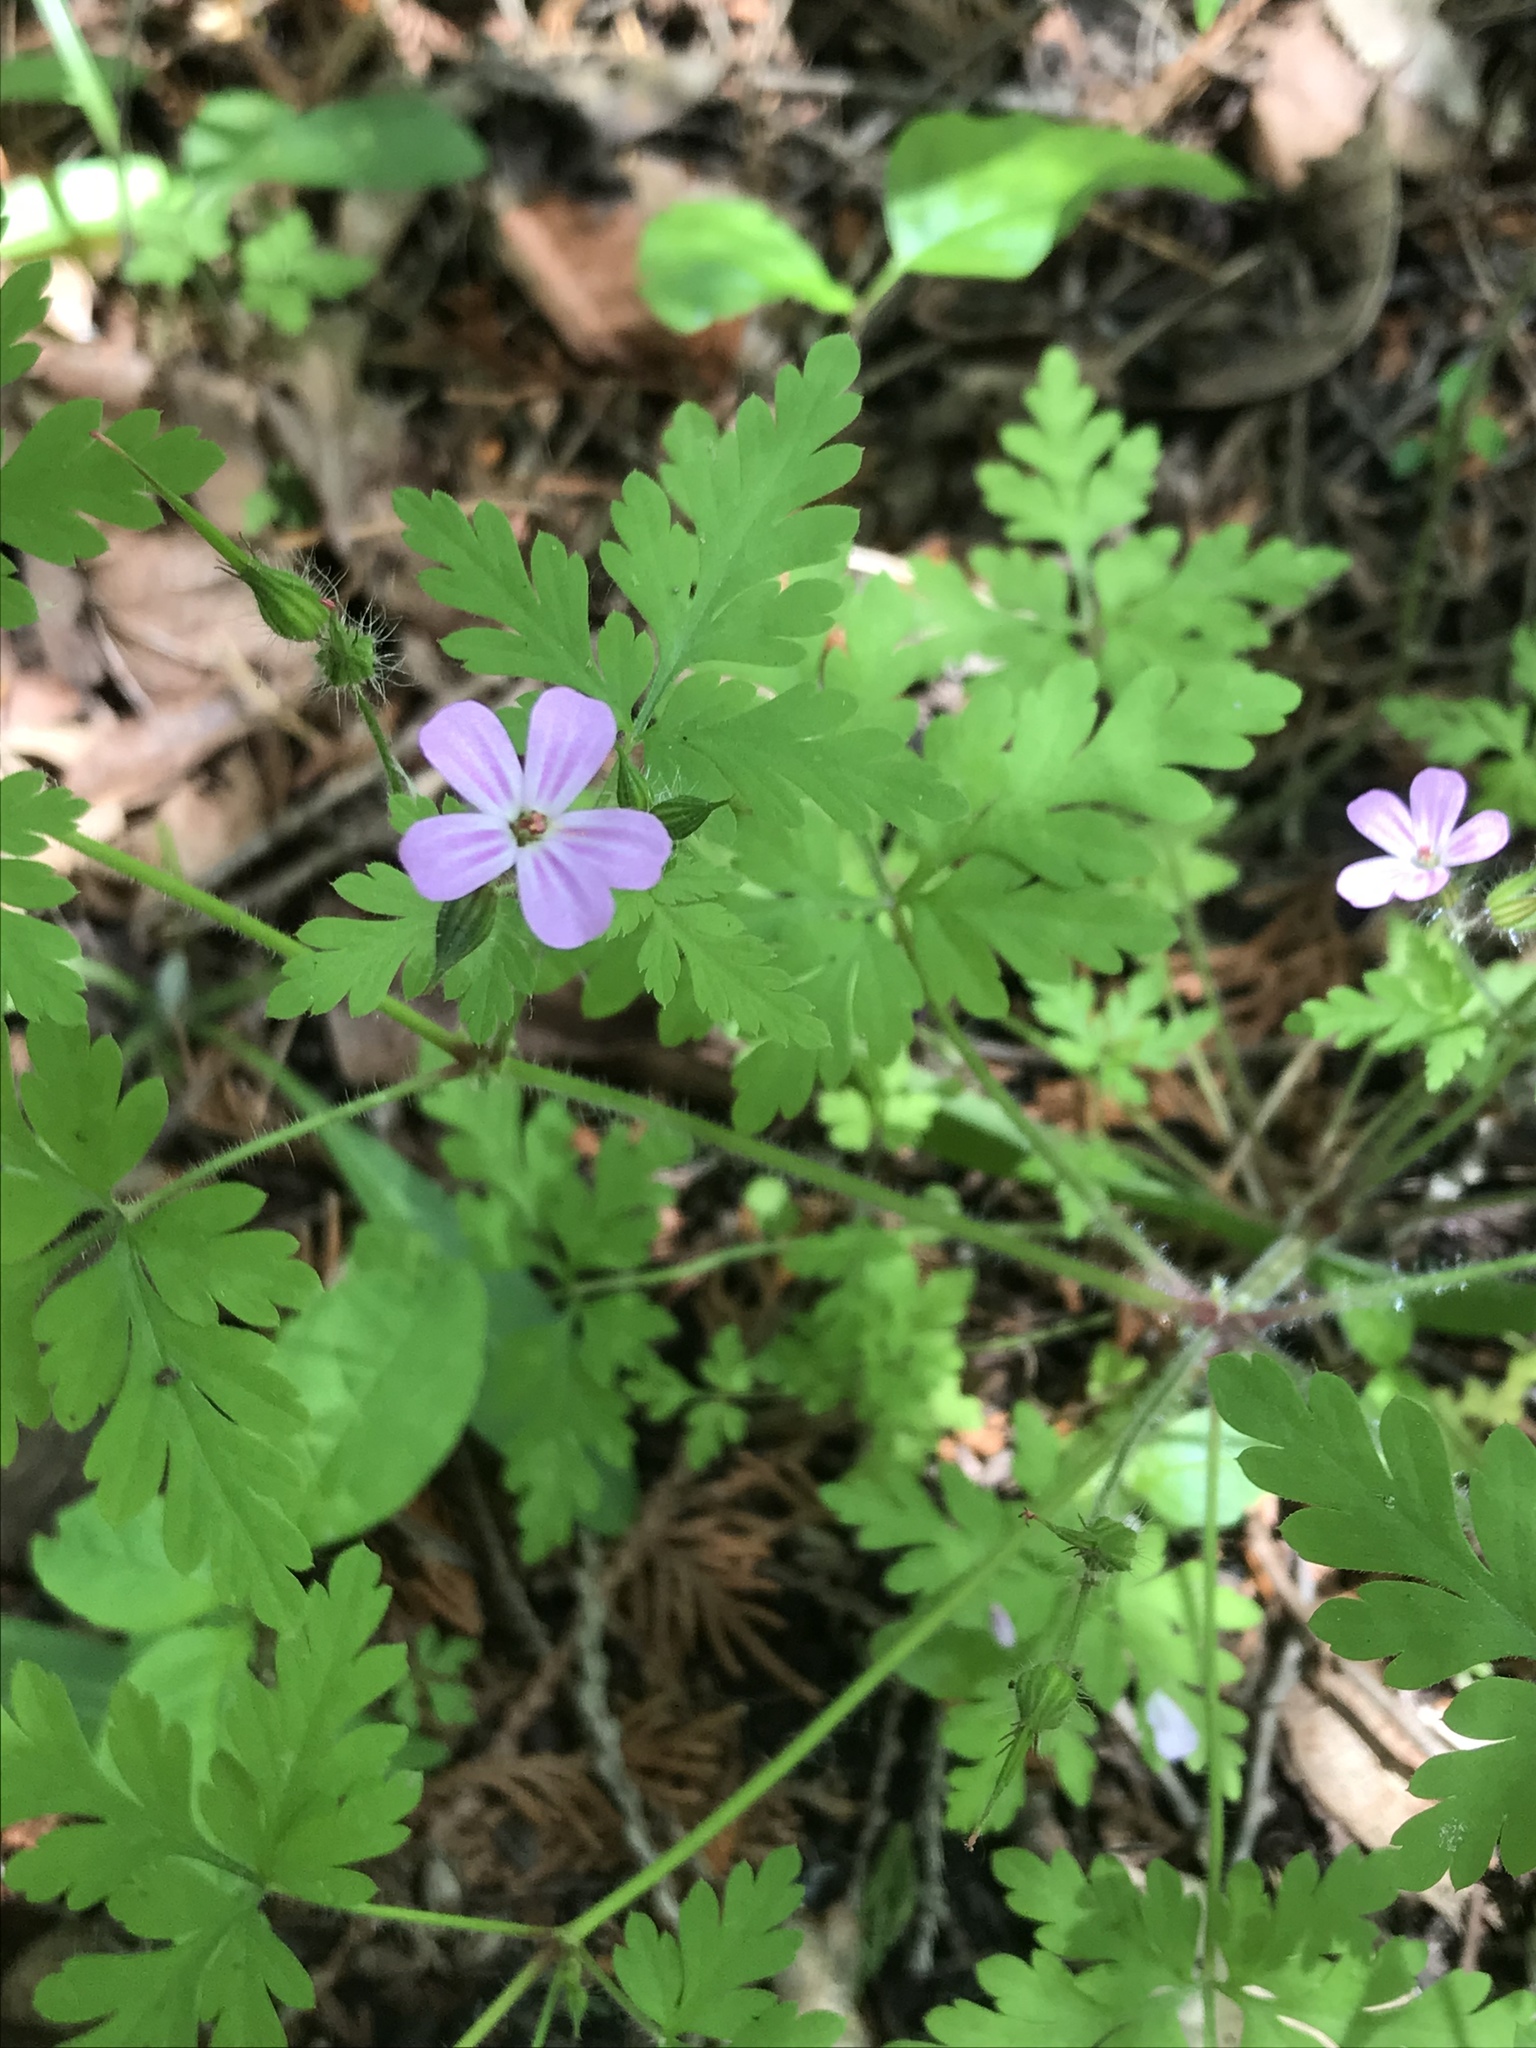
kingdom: Plantae
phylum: Tracheophyta
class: Magnoliopsida
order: Geraniales
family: Geraniaceae
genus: Geranium
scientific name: Geranium robertianum
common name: Herb-robert
